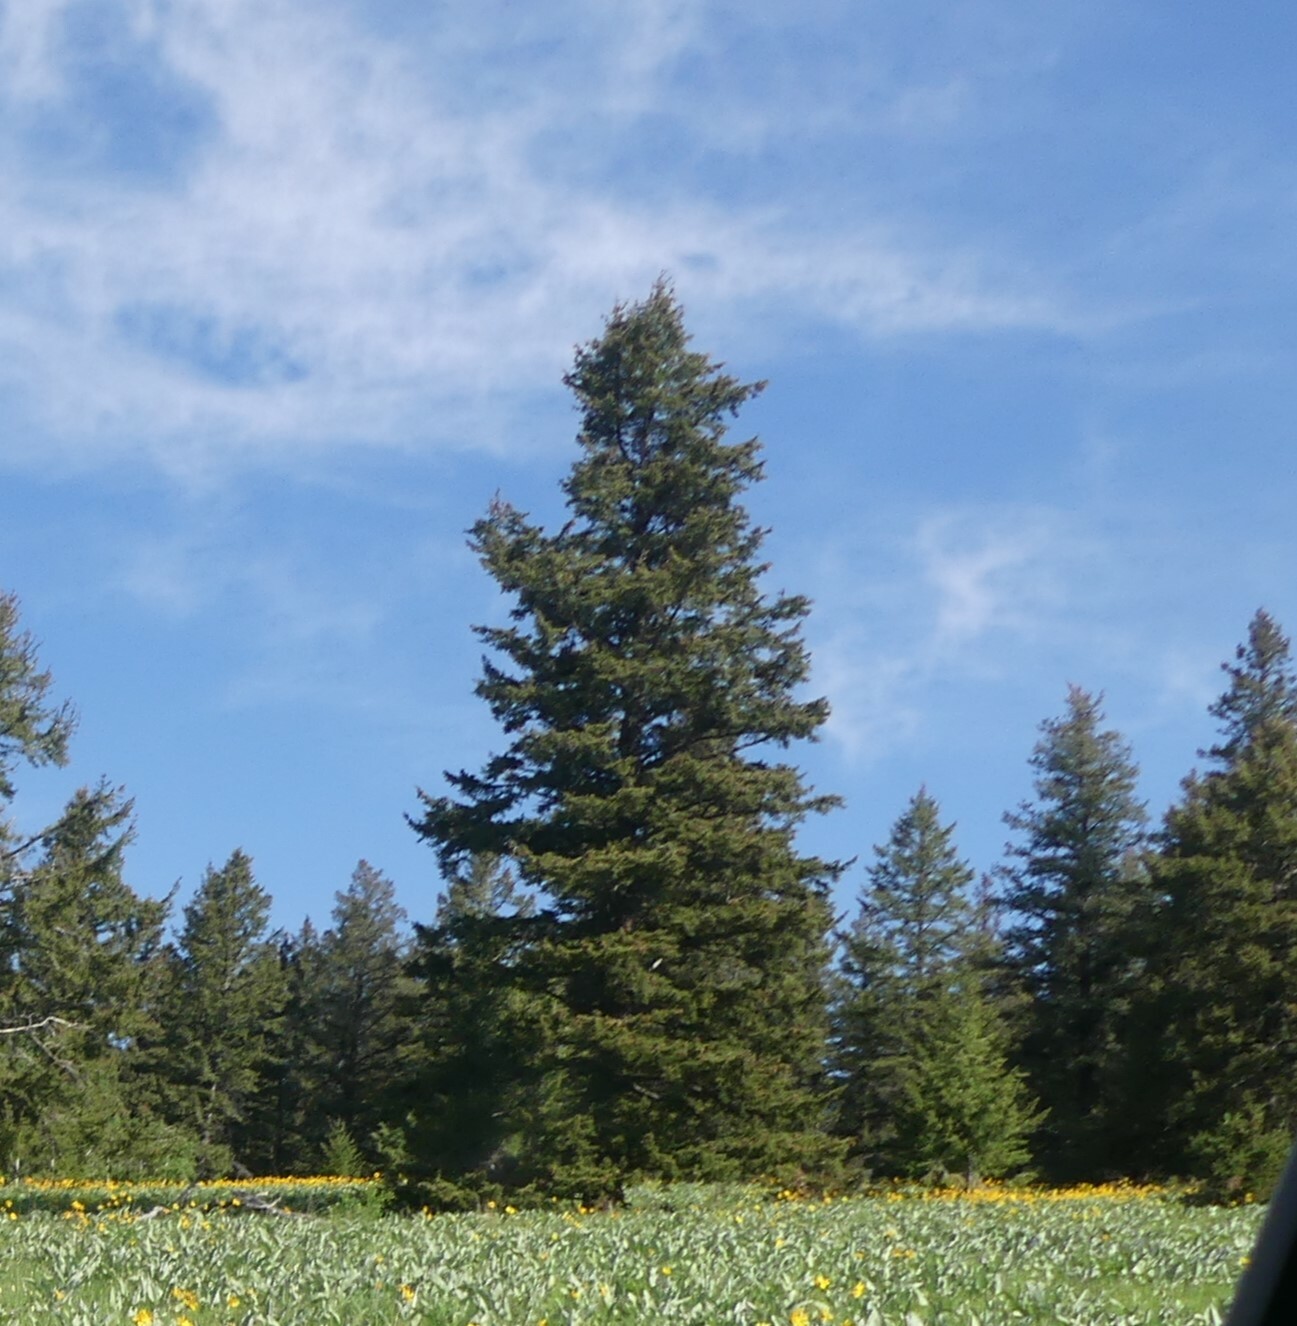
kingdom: Plantae
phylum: Tracheophyta
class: Pinopsida
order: Pinales
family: Pinaceae
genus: Pseudotsuga
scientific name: Pseudotsuga menziesii
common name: Douglas fir
